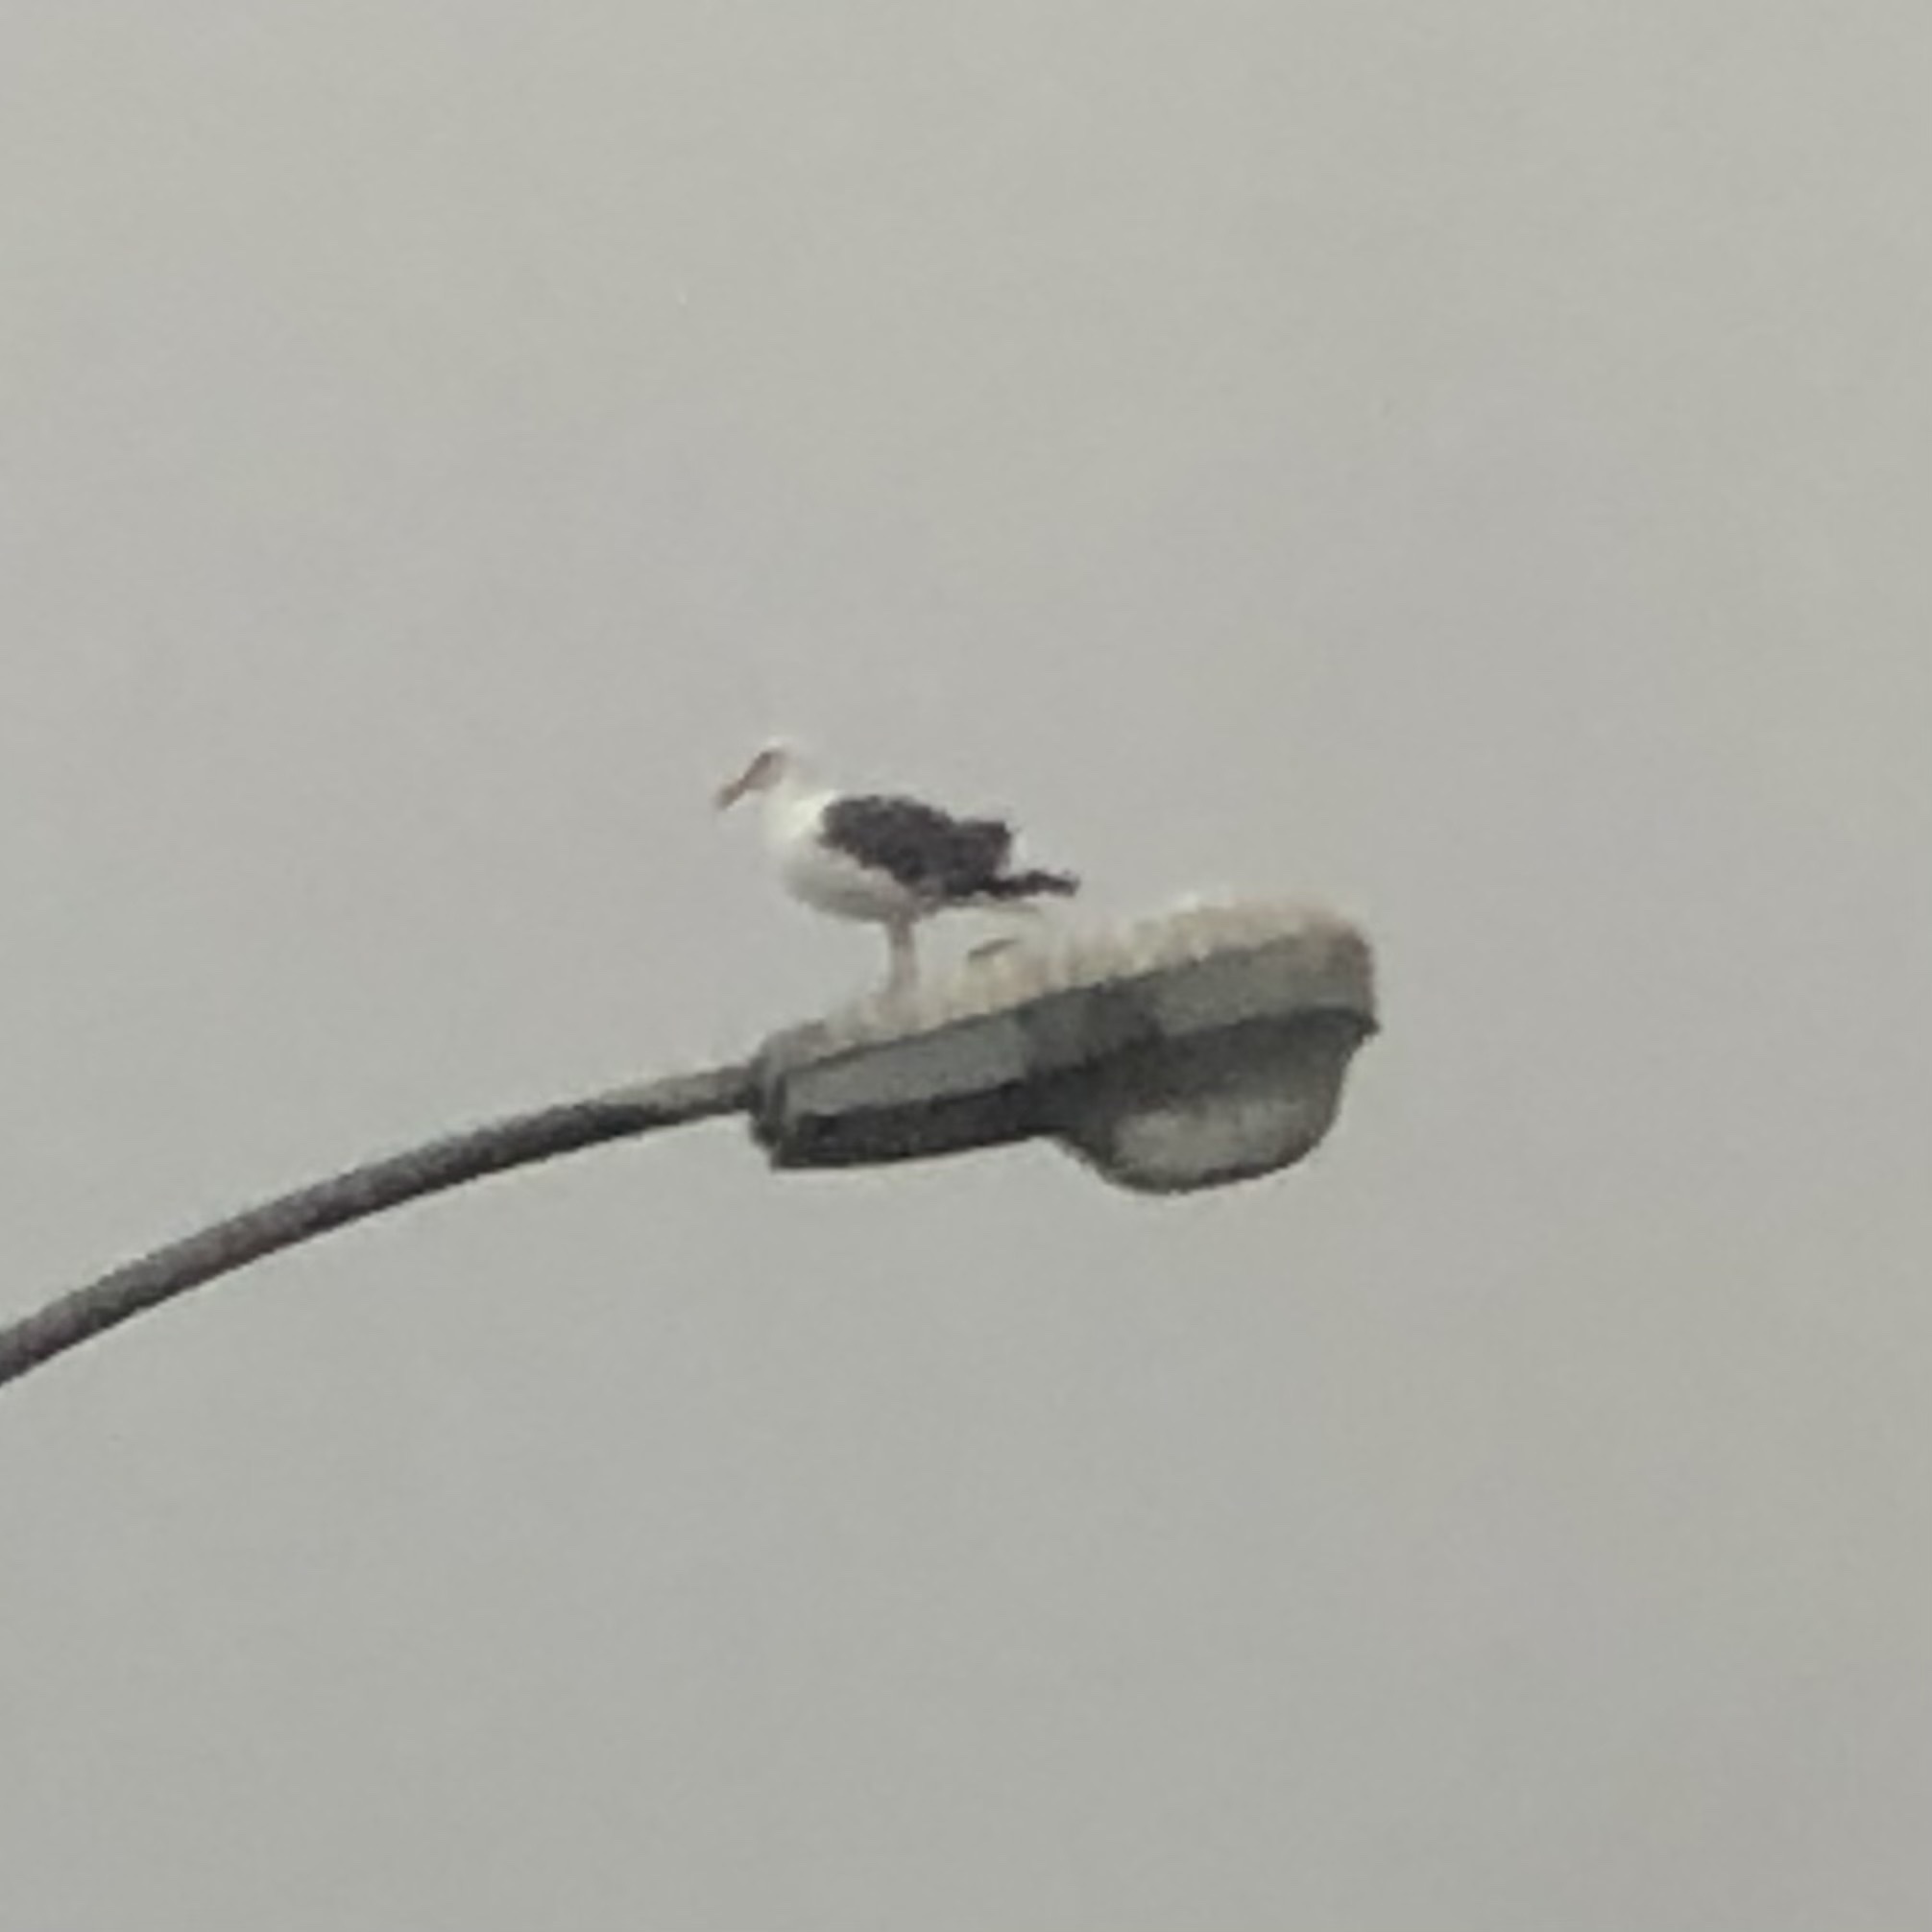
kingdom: Animalia
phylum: Chordata
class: Aves
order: Charadriiformes
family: Laridae
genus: Larus
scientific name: Larus occidentalis
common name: Western gull
